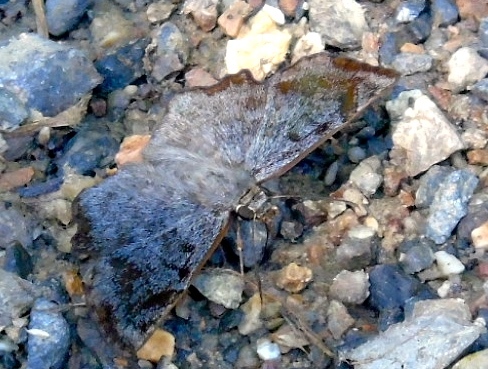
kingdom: Animalia
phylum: Arthropoda
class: Insecta
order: Lepidoptera
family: Hesperiidae
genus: Antigonus
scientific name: Antigonus erosus
